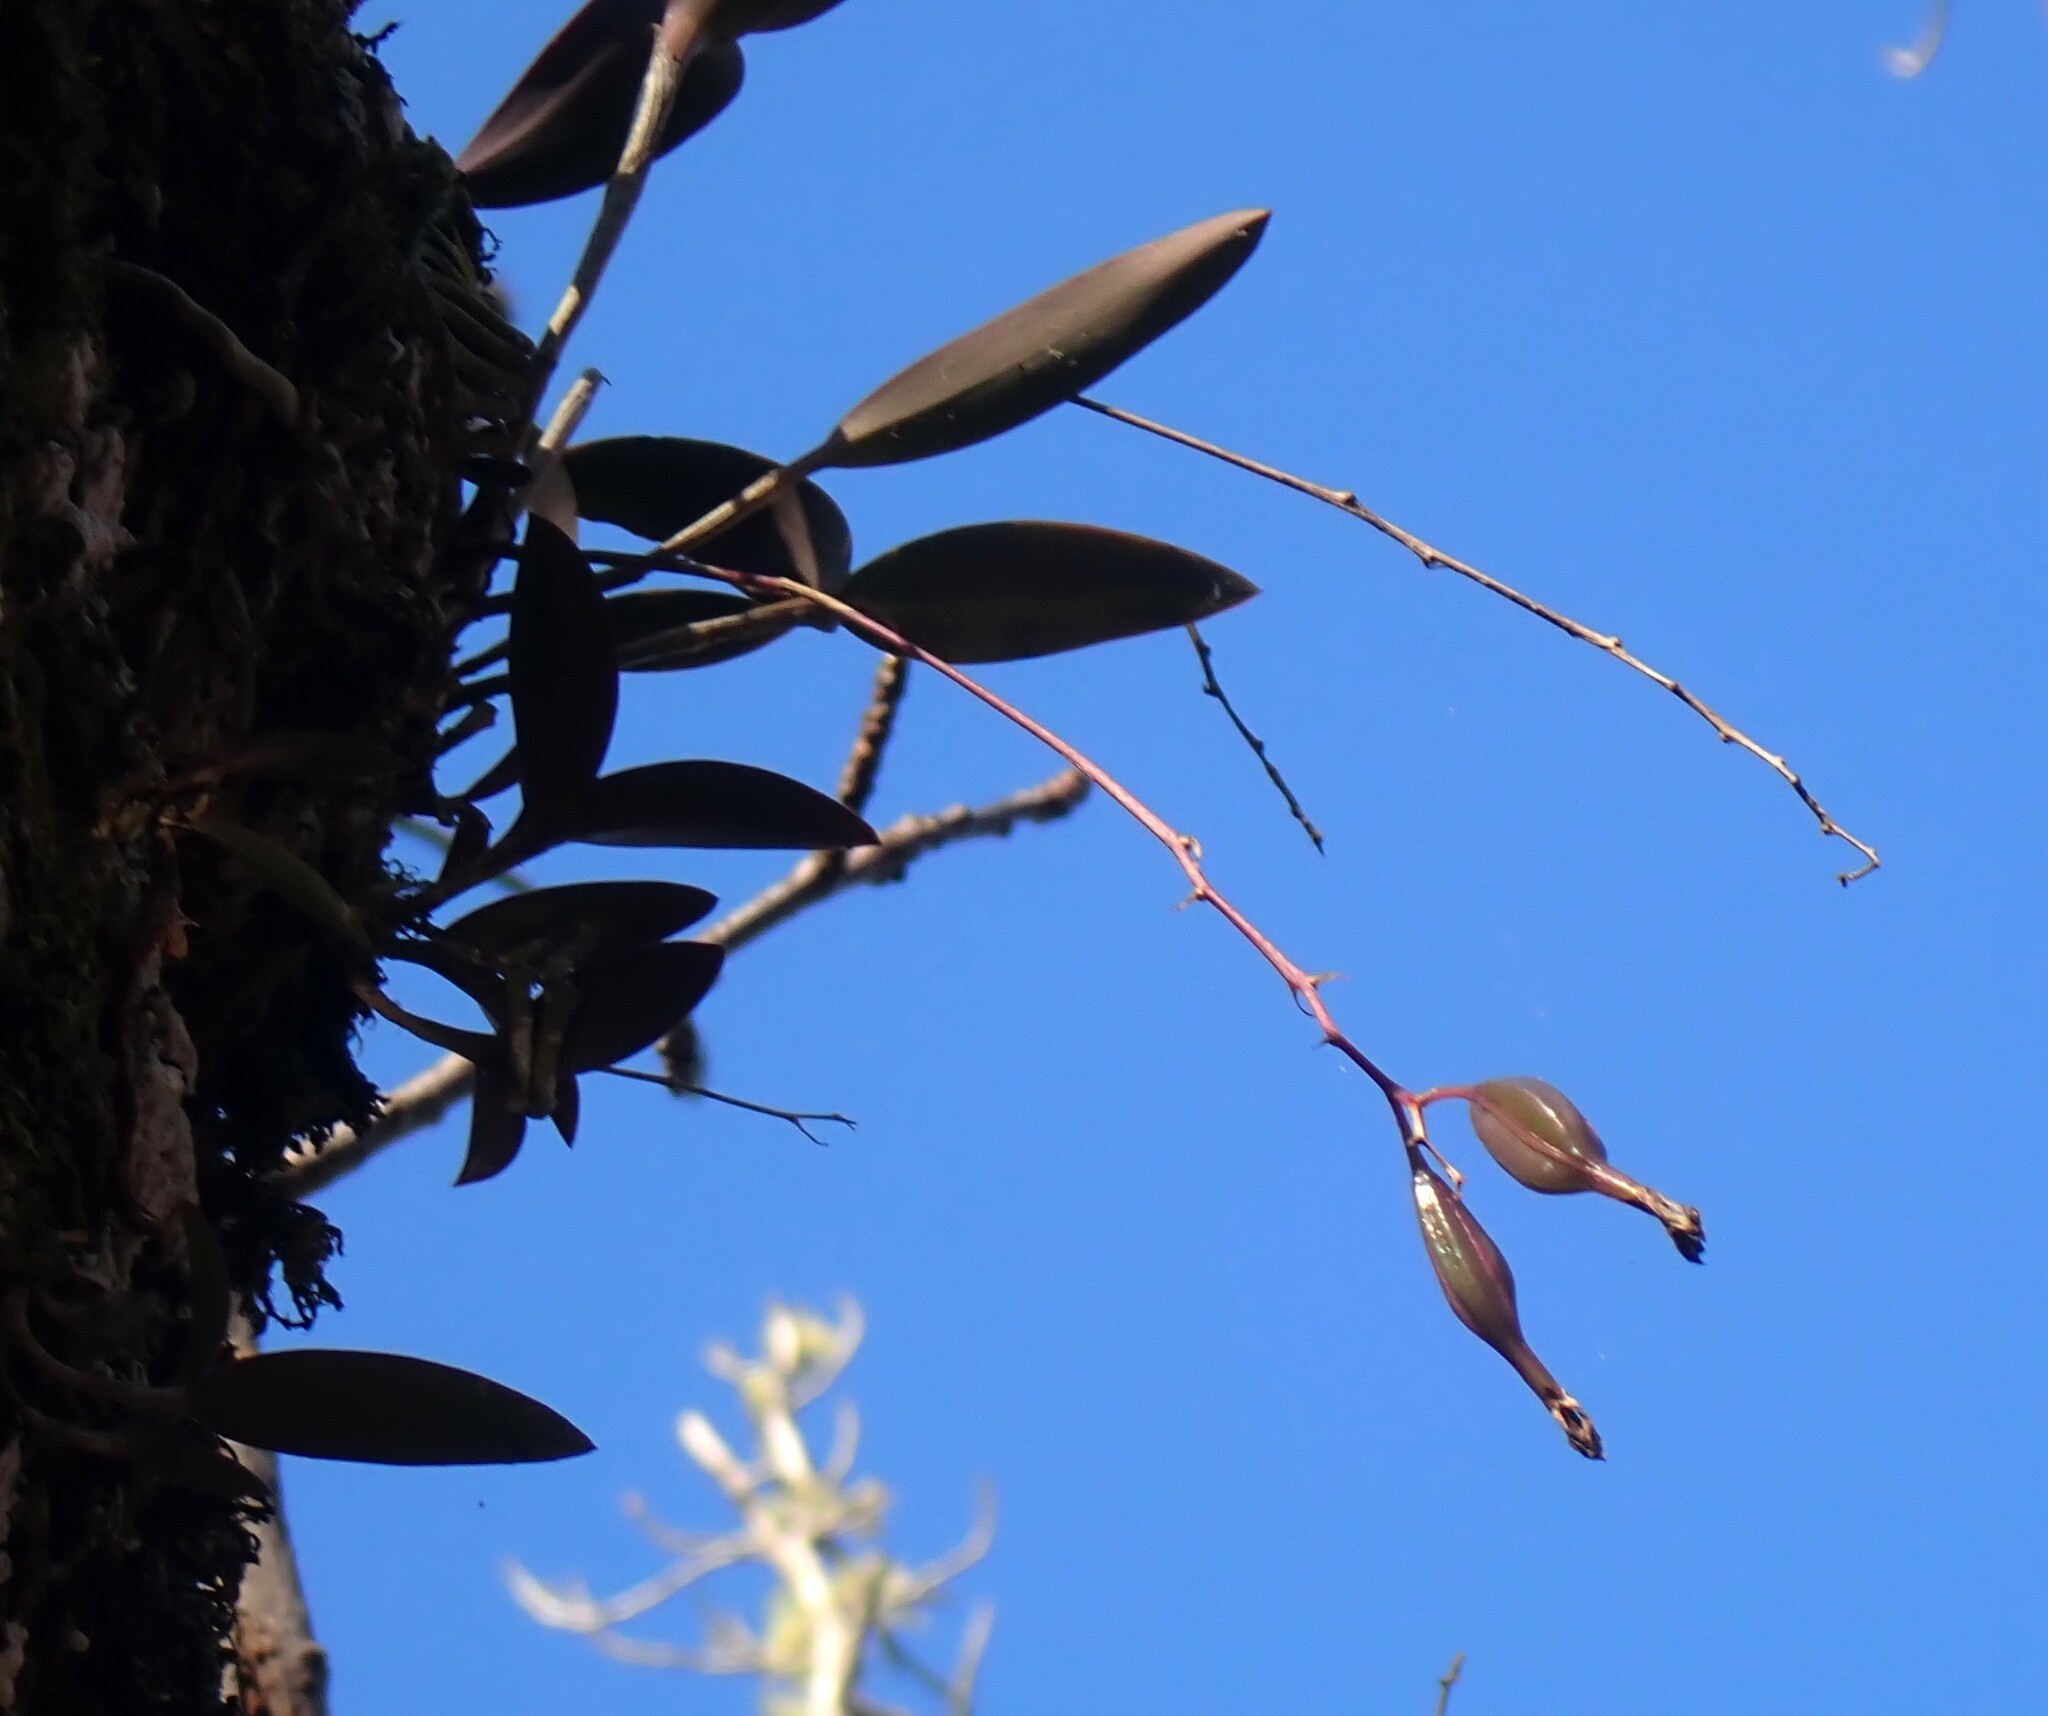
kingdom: Plantae
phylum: Tracheophyta
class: Liliopsida
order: Asparagales
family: Orchidaceae
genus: Epidendrum
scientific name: Epidendrum conopseum
